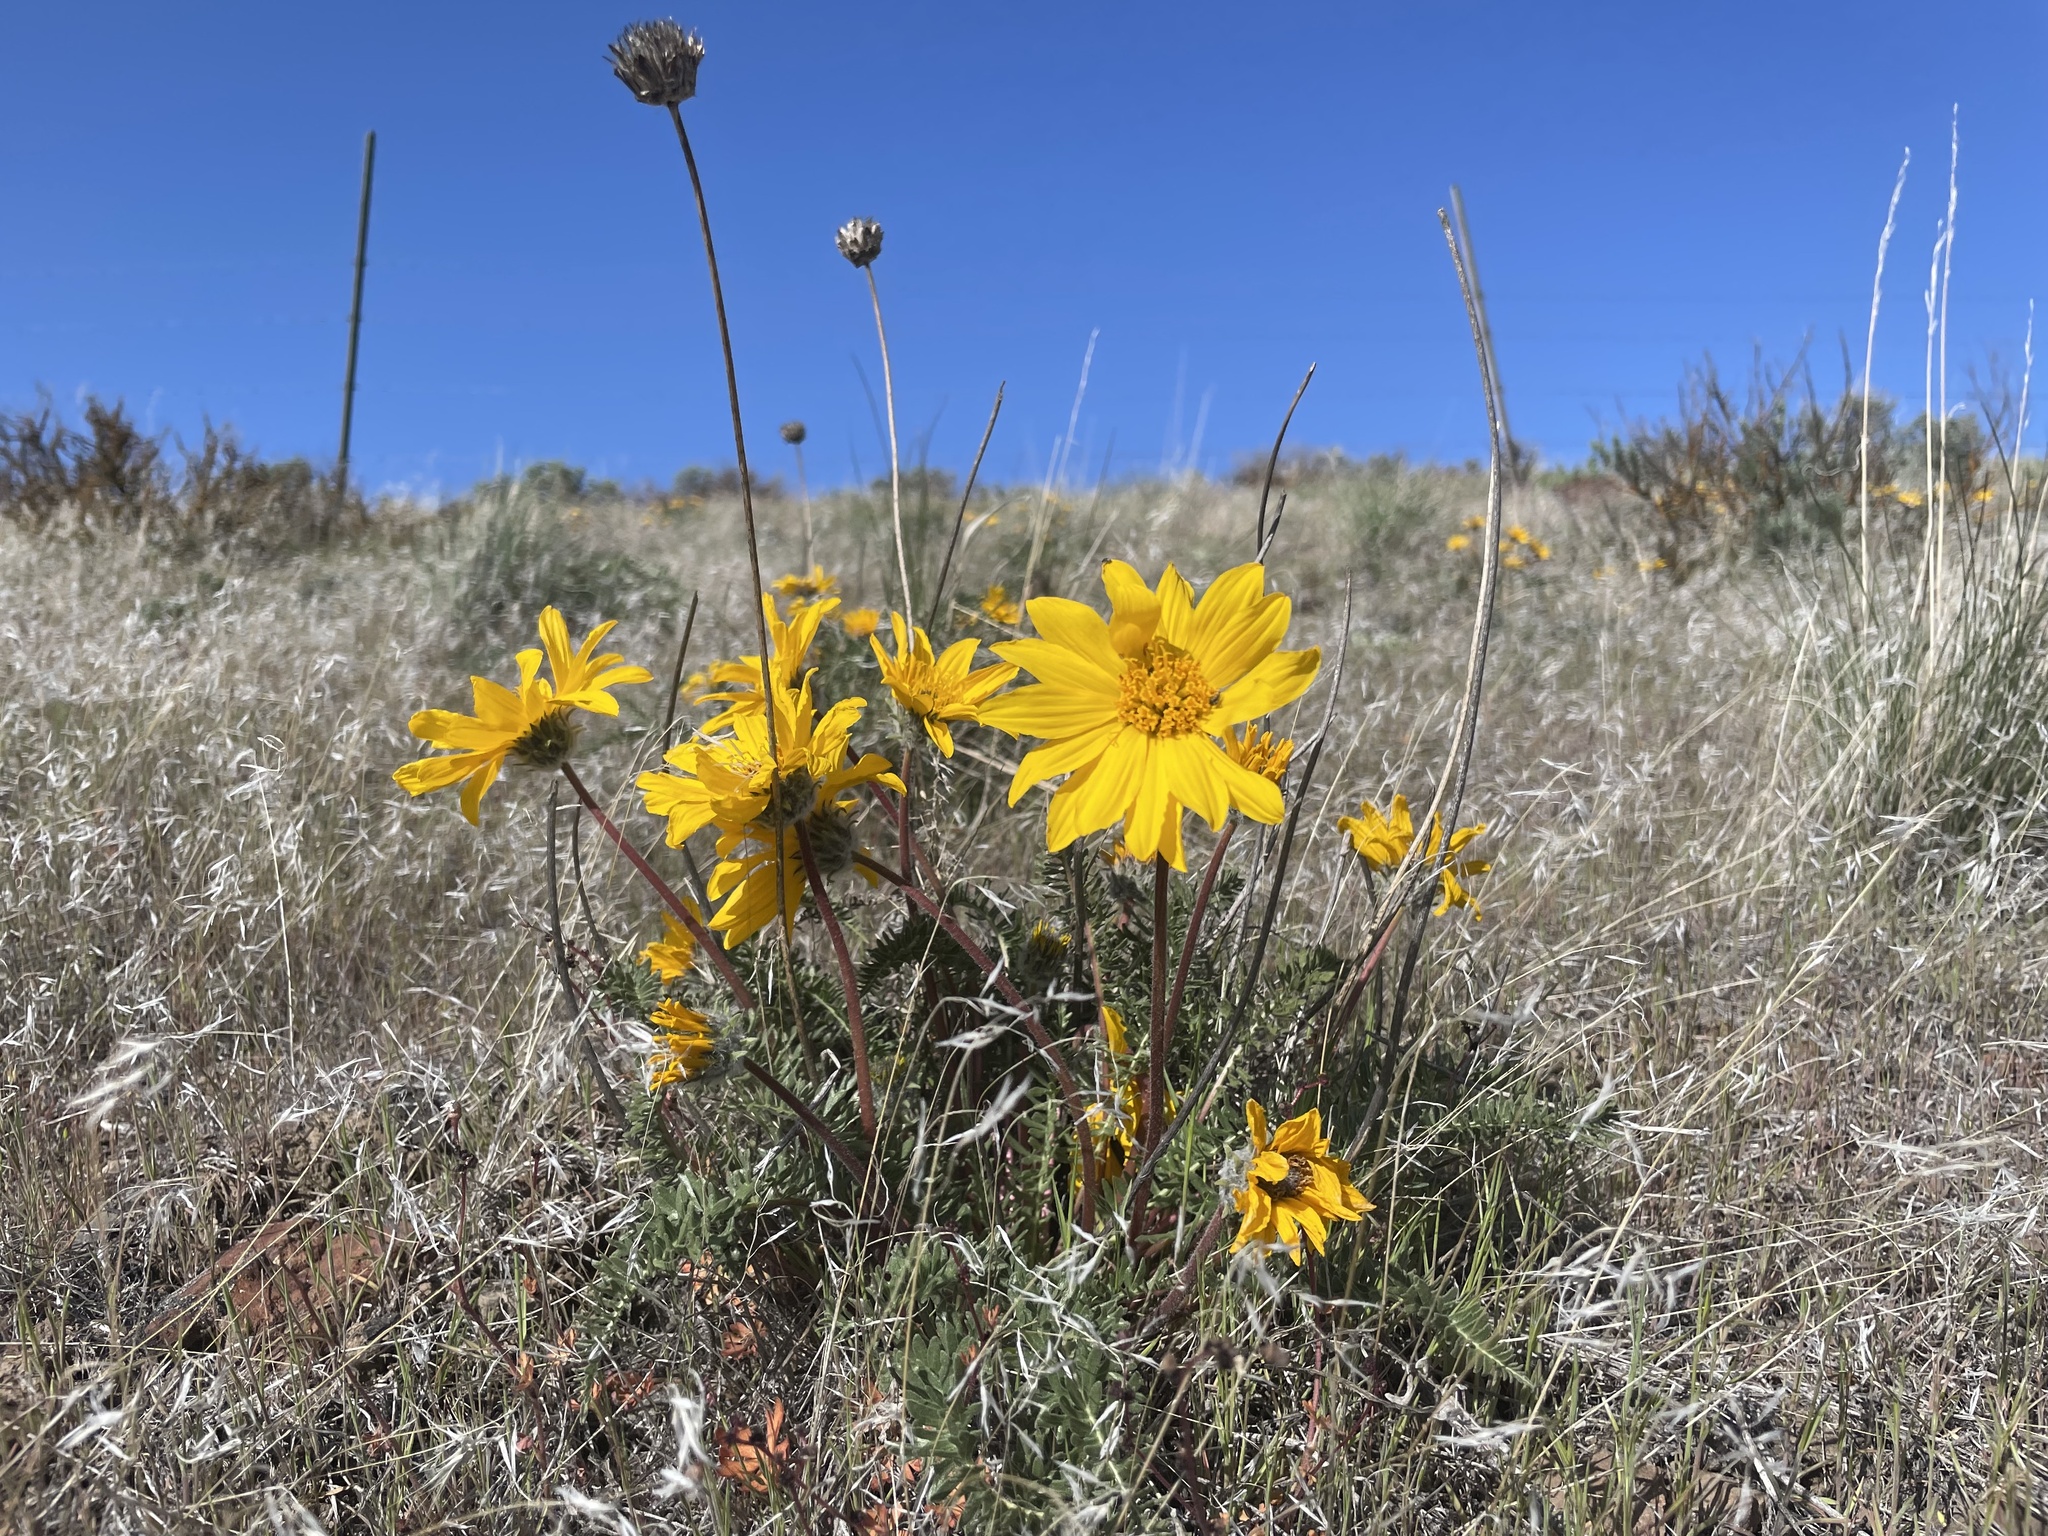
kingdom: Plantae
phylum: Tracheophyta
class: Magnoliopsida
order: Asterales
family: Asteraceae
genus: Balsamorhiza
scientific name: Balsamorhiza hookeri
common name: Hooker's balsamroot
